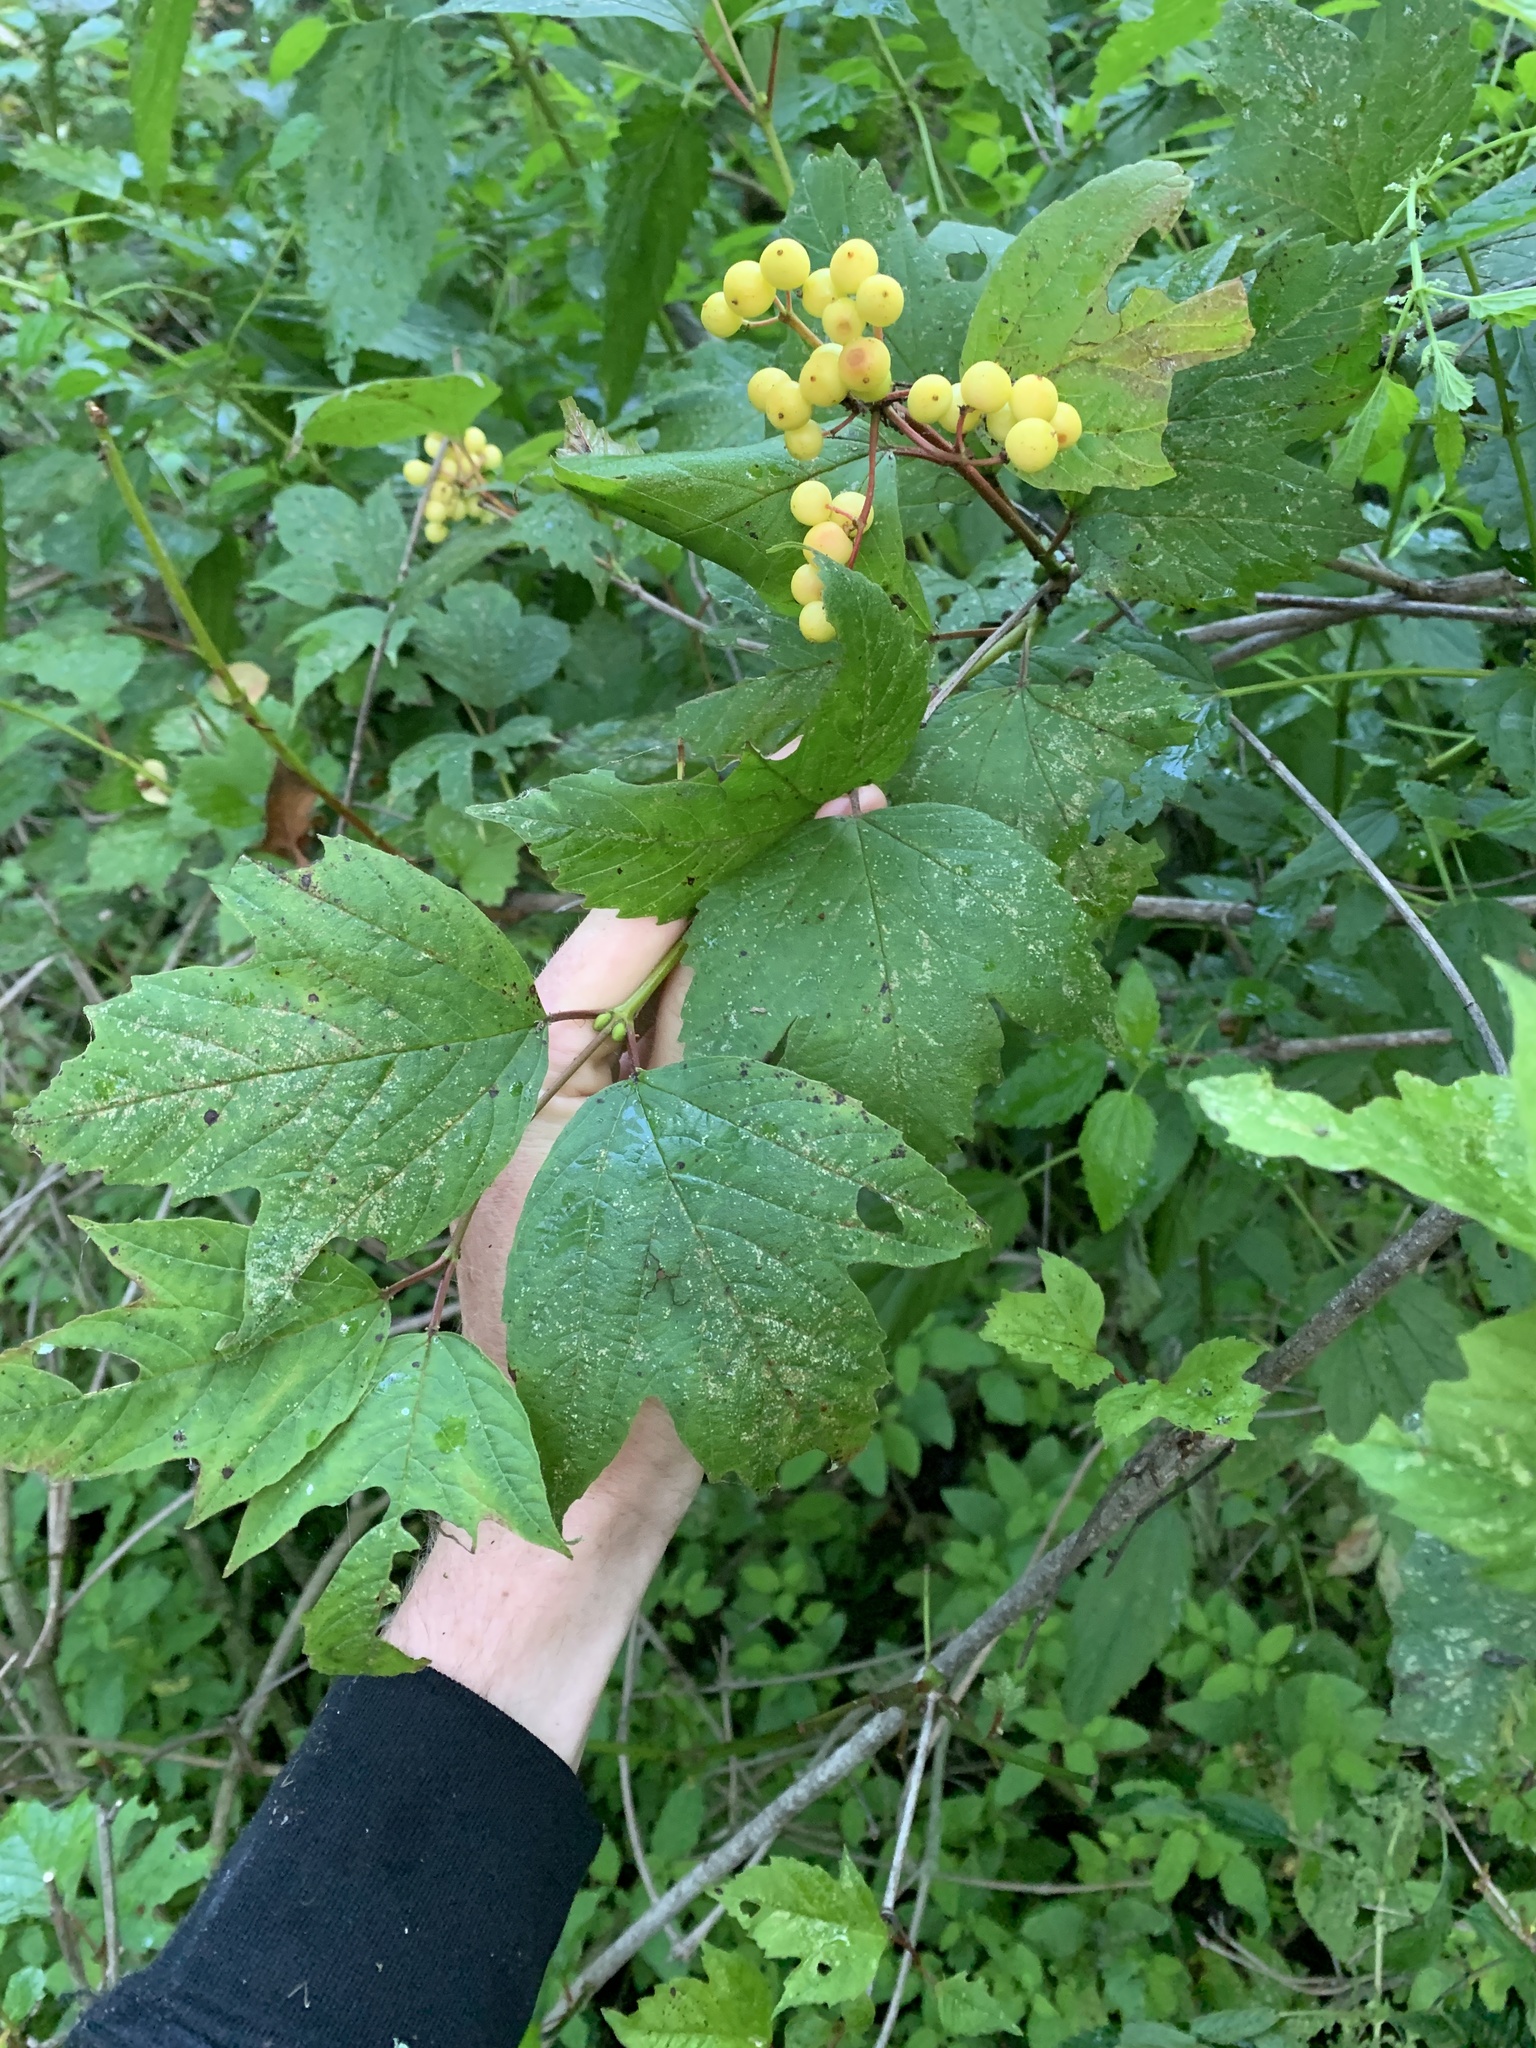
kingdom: Plantae
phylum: Tracheophyta
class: Magnoliopsida
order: Dipsacales
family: Viburnaceae
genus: Viburnum
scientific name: Viburnum opulus
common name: Guelder-rose
